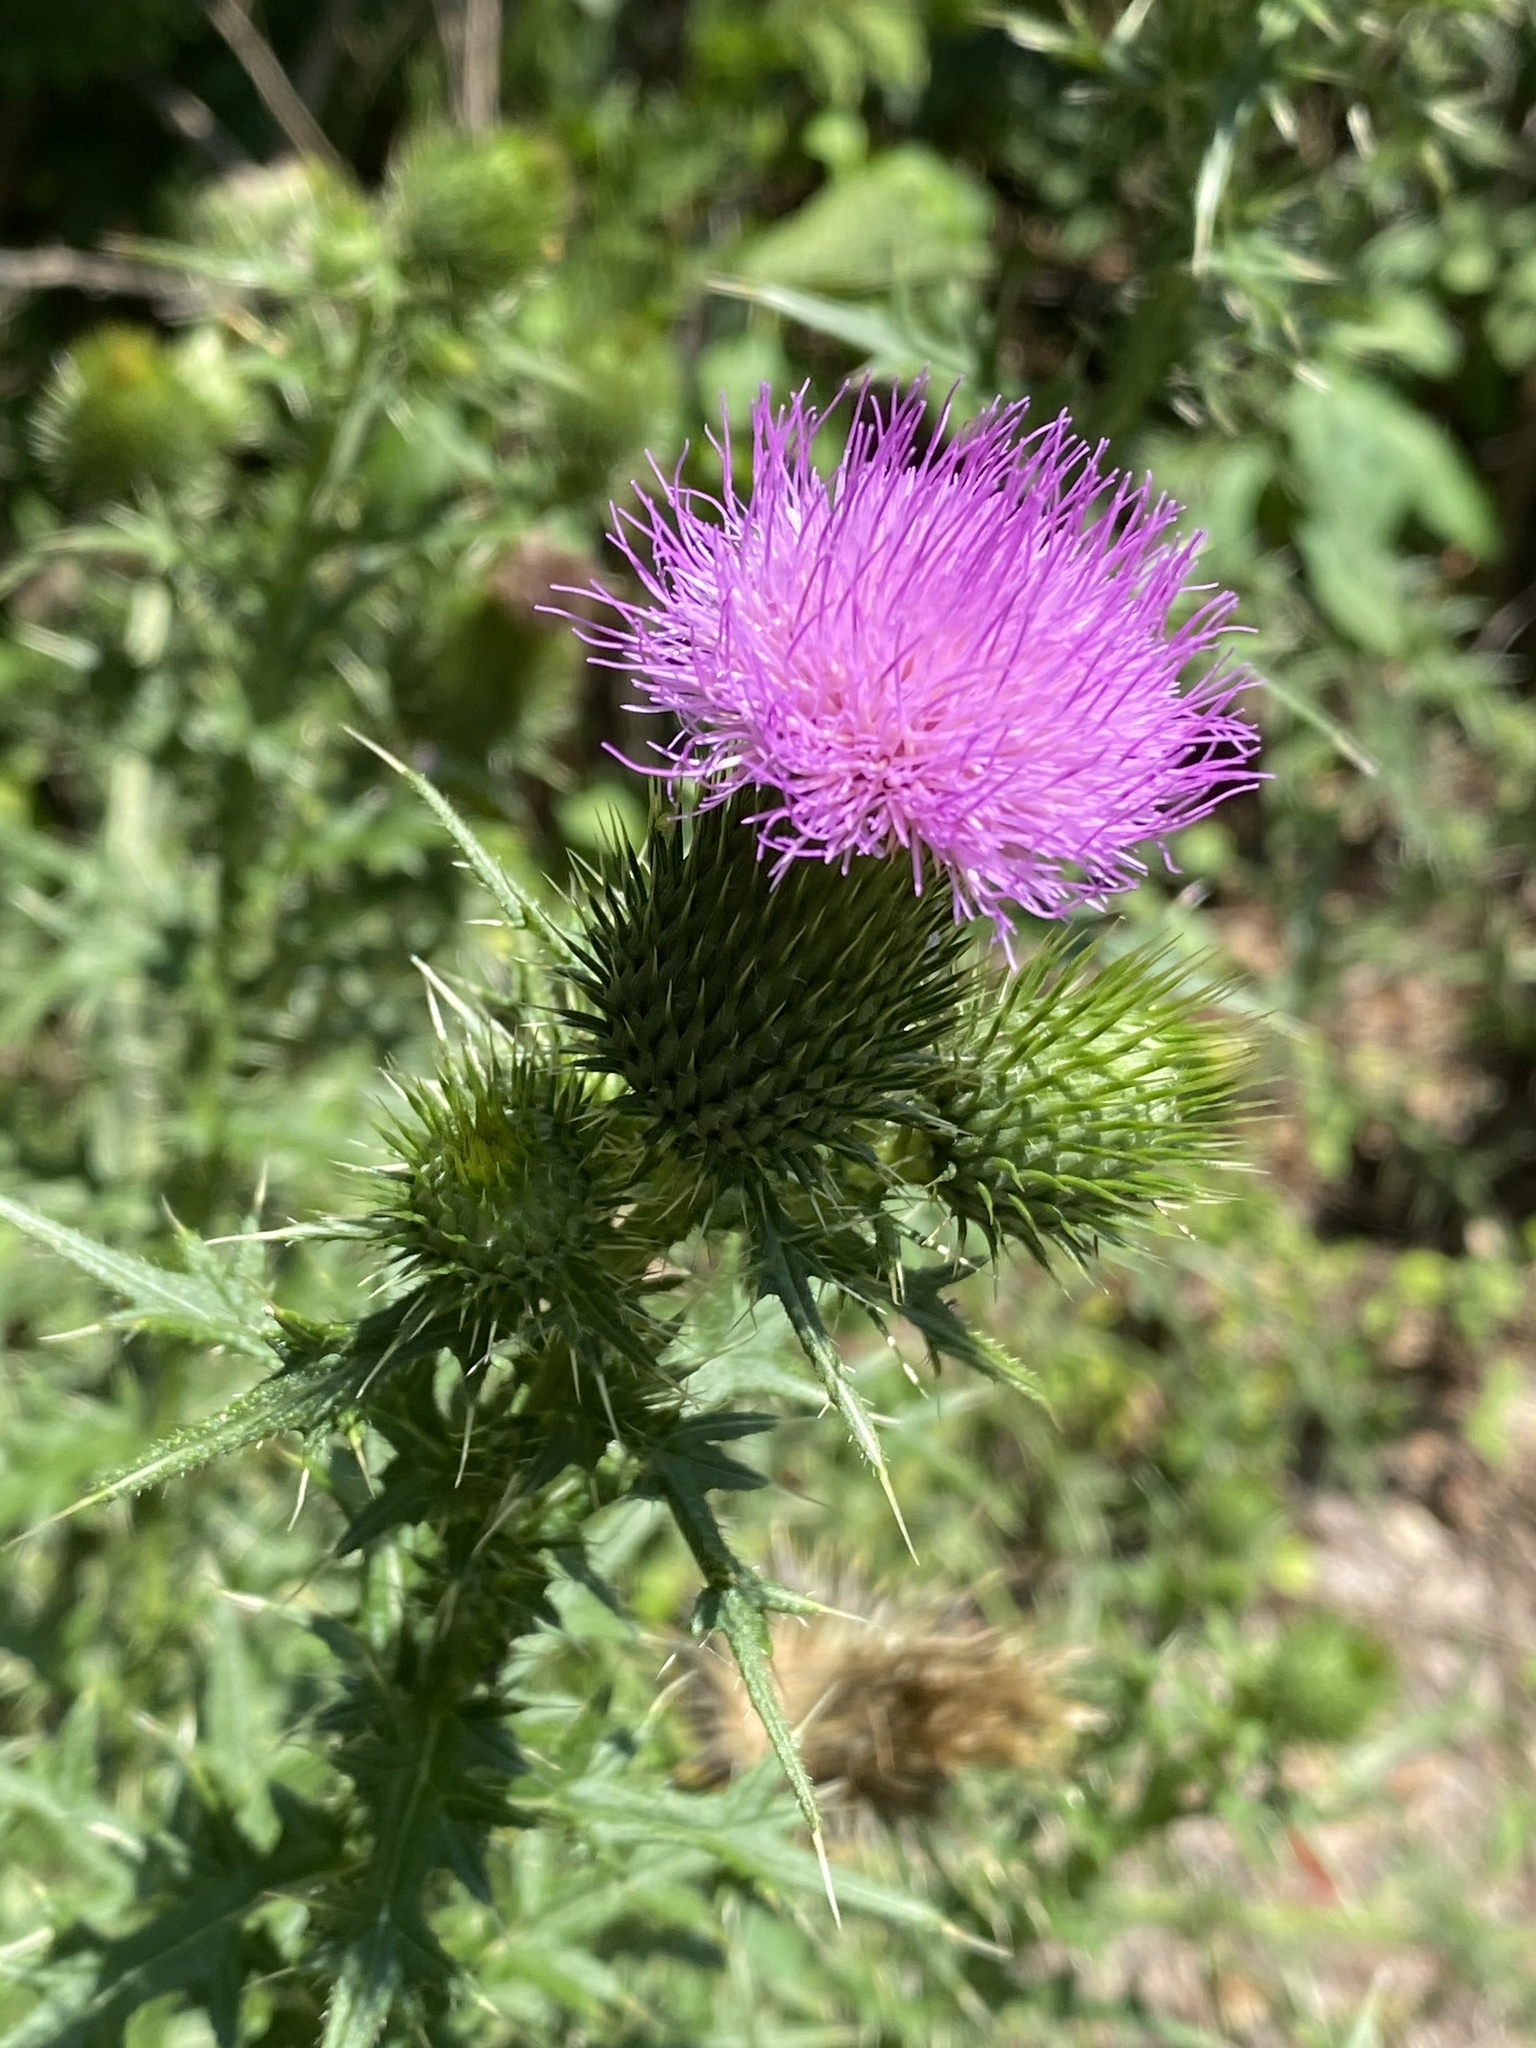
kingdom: Plantae
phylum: Tracheophyta
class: Magnoliopsida
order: Asterales
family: Asteraceae
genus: Cirsium
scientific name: Cirsium vulgare
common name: Bull thistle
